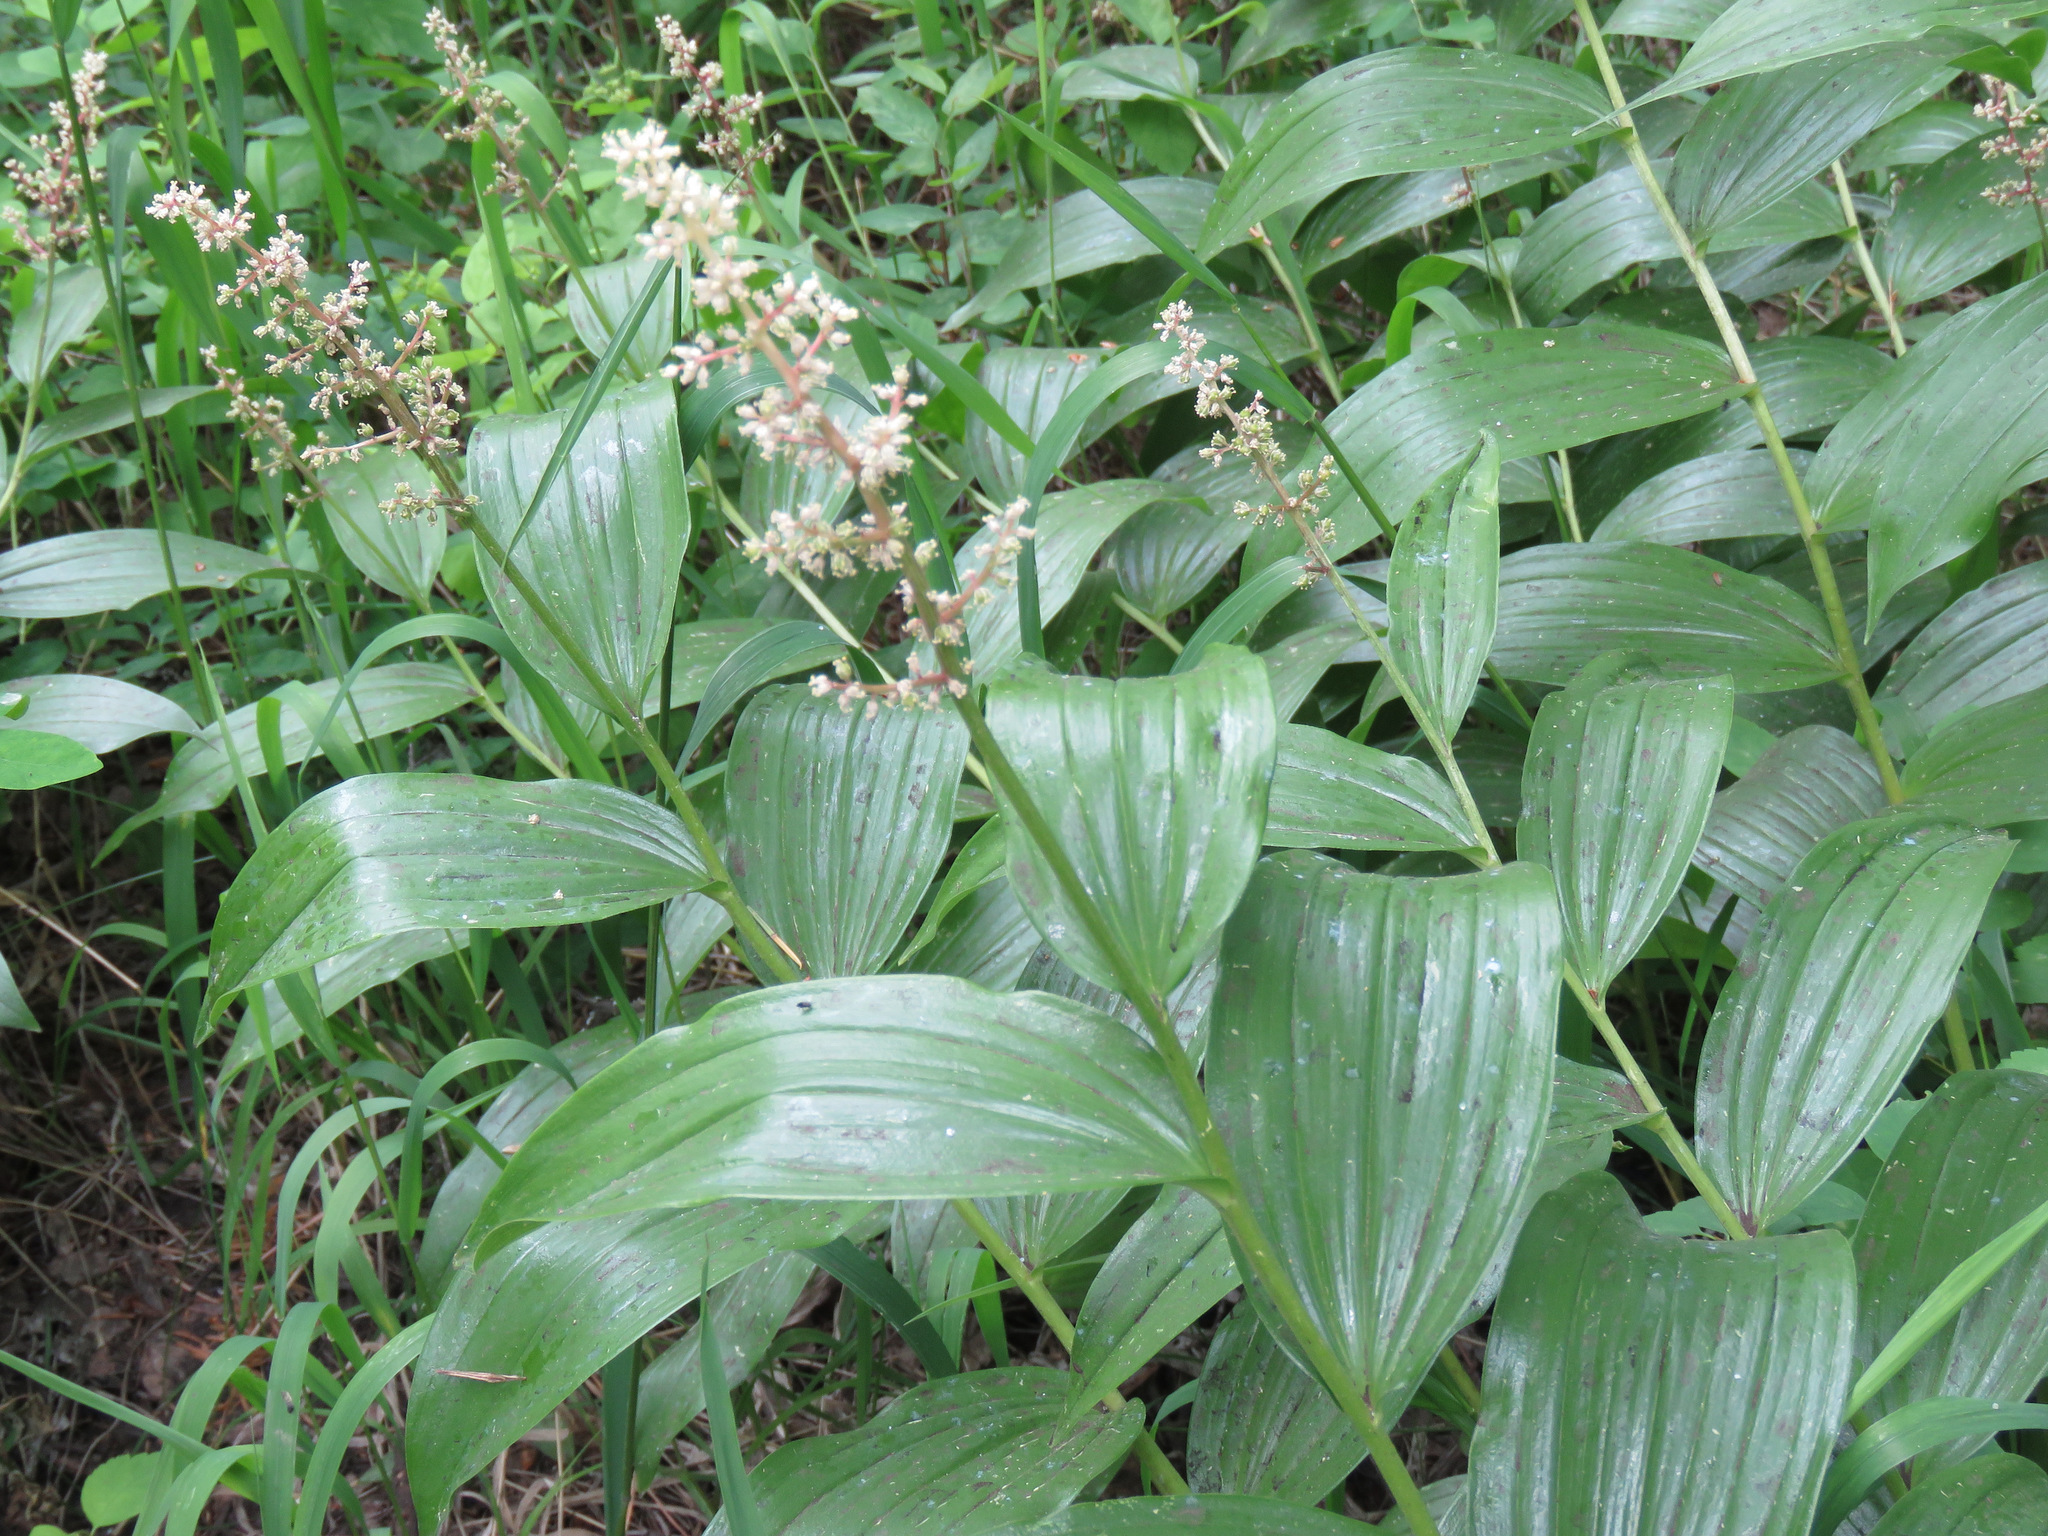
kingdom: Plantae
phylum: Tracheophyta
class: Liliopsida
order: Asparagales
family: Asparagaceae
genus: Maianthemum
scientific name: Maianthemum racemosum
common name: False spikenard
